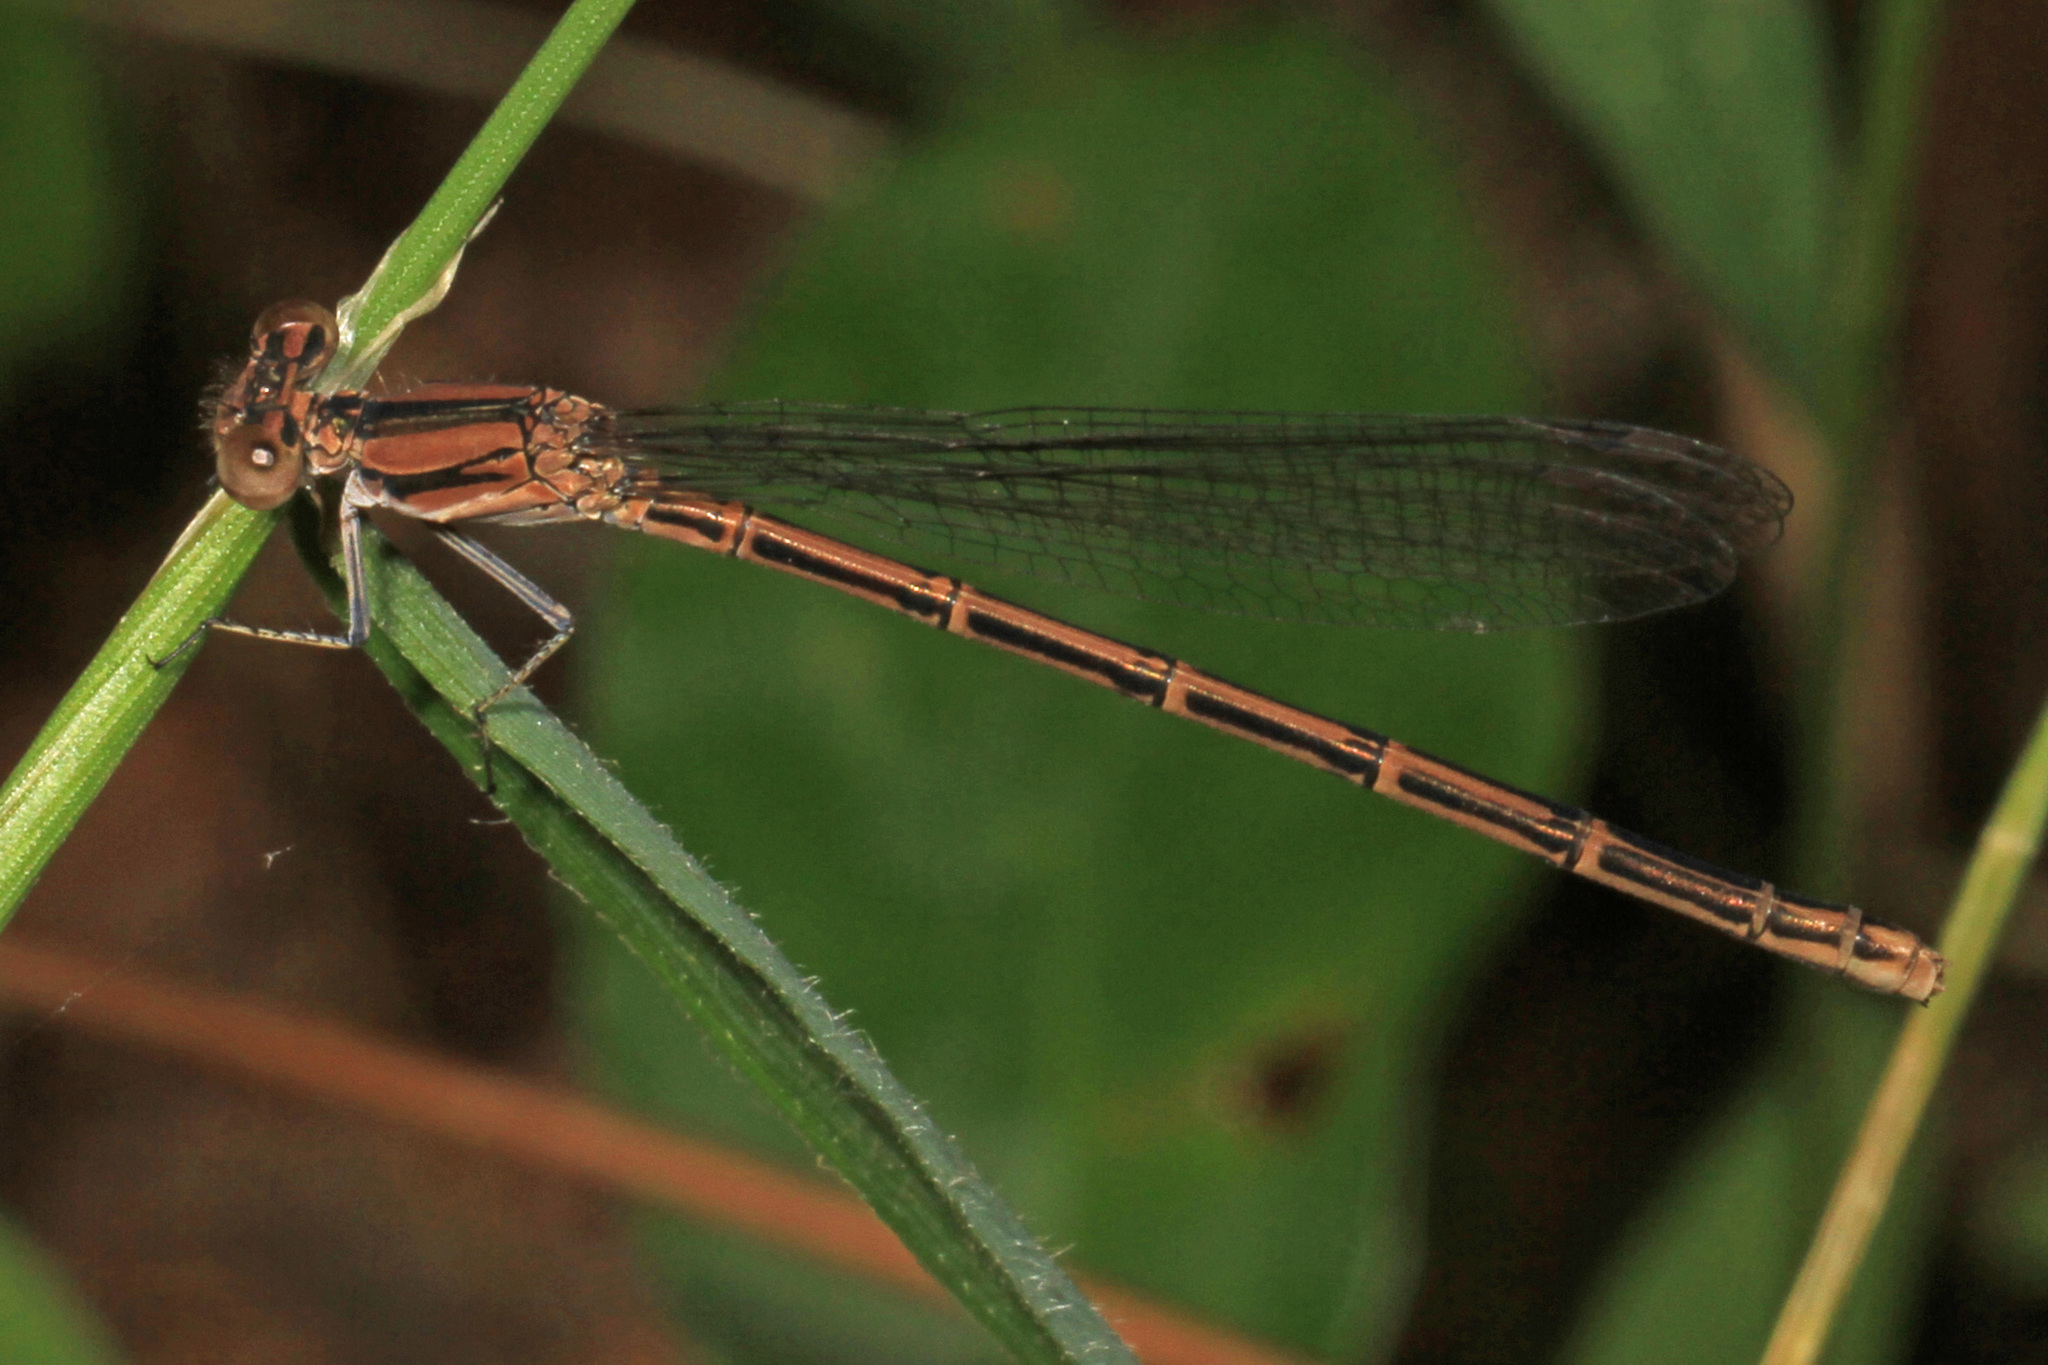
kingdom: Animalia
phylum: Arthropoda
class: Insecta
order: Odonata
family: Coenagrionidae
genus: Argia
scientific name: Argia fumipennis
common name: Variable dancer
